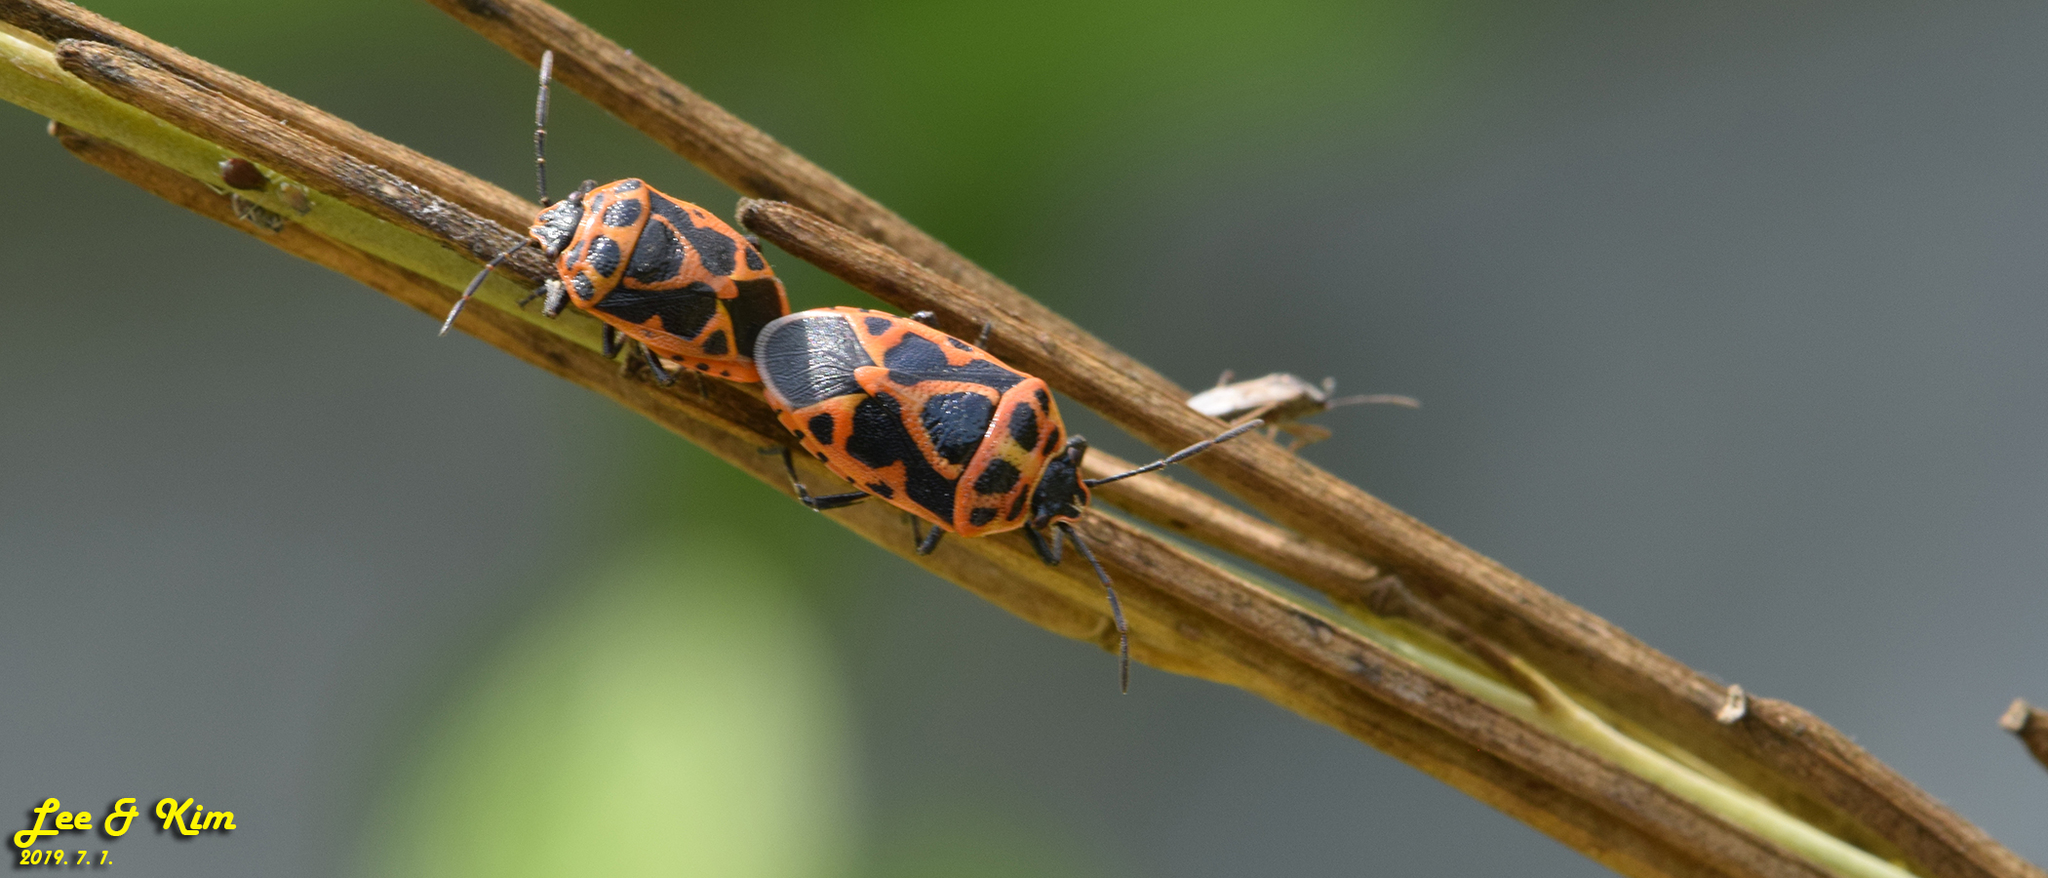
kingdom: Animalia
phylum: Arthropoda
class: Insecta
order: Hemiptera
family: Pentatomidae
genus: Eurydema
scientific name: Eurydema dominulus
